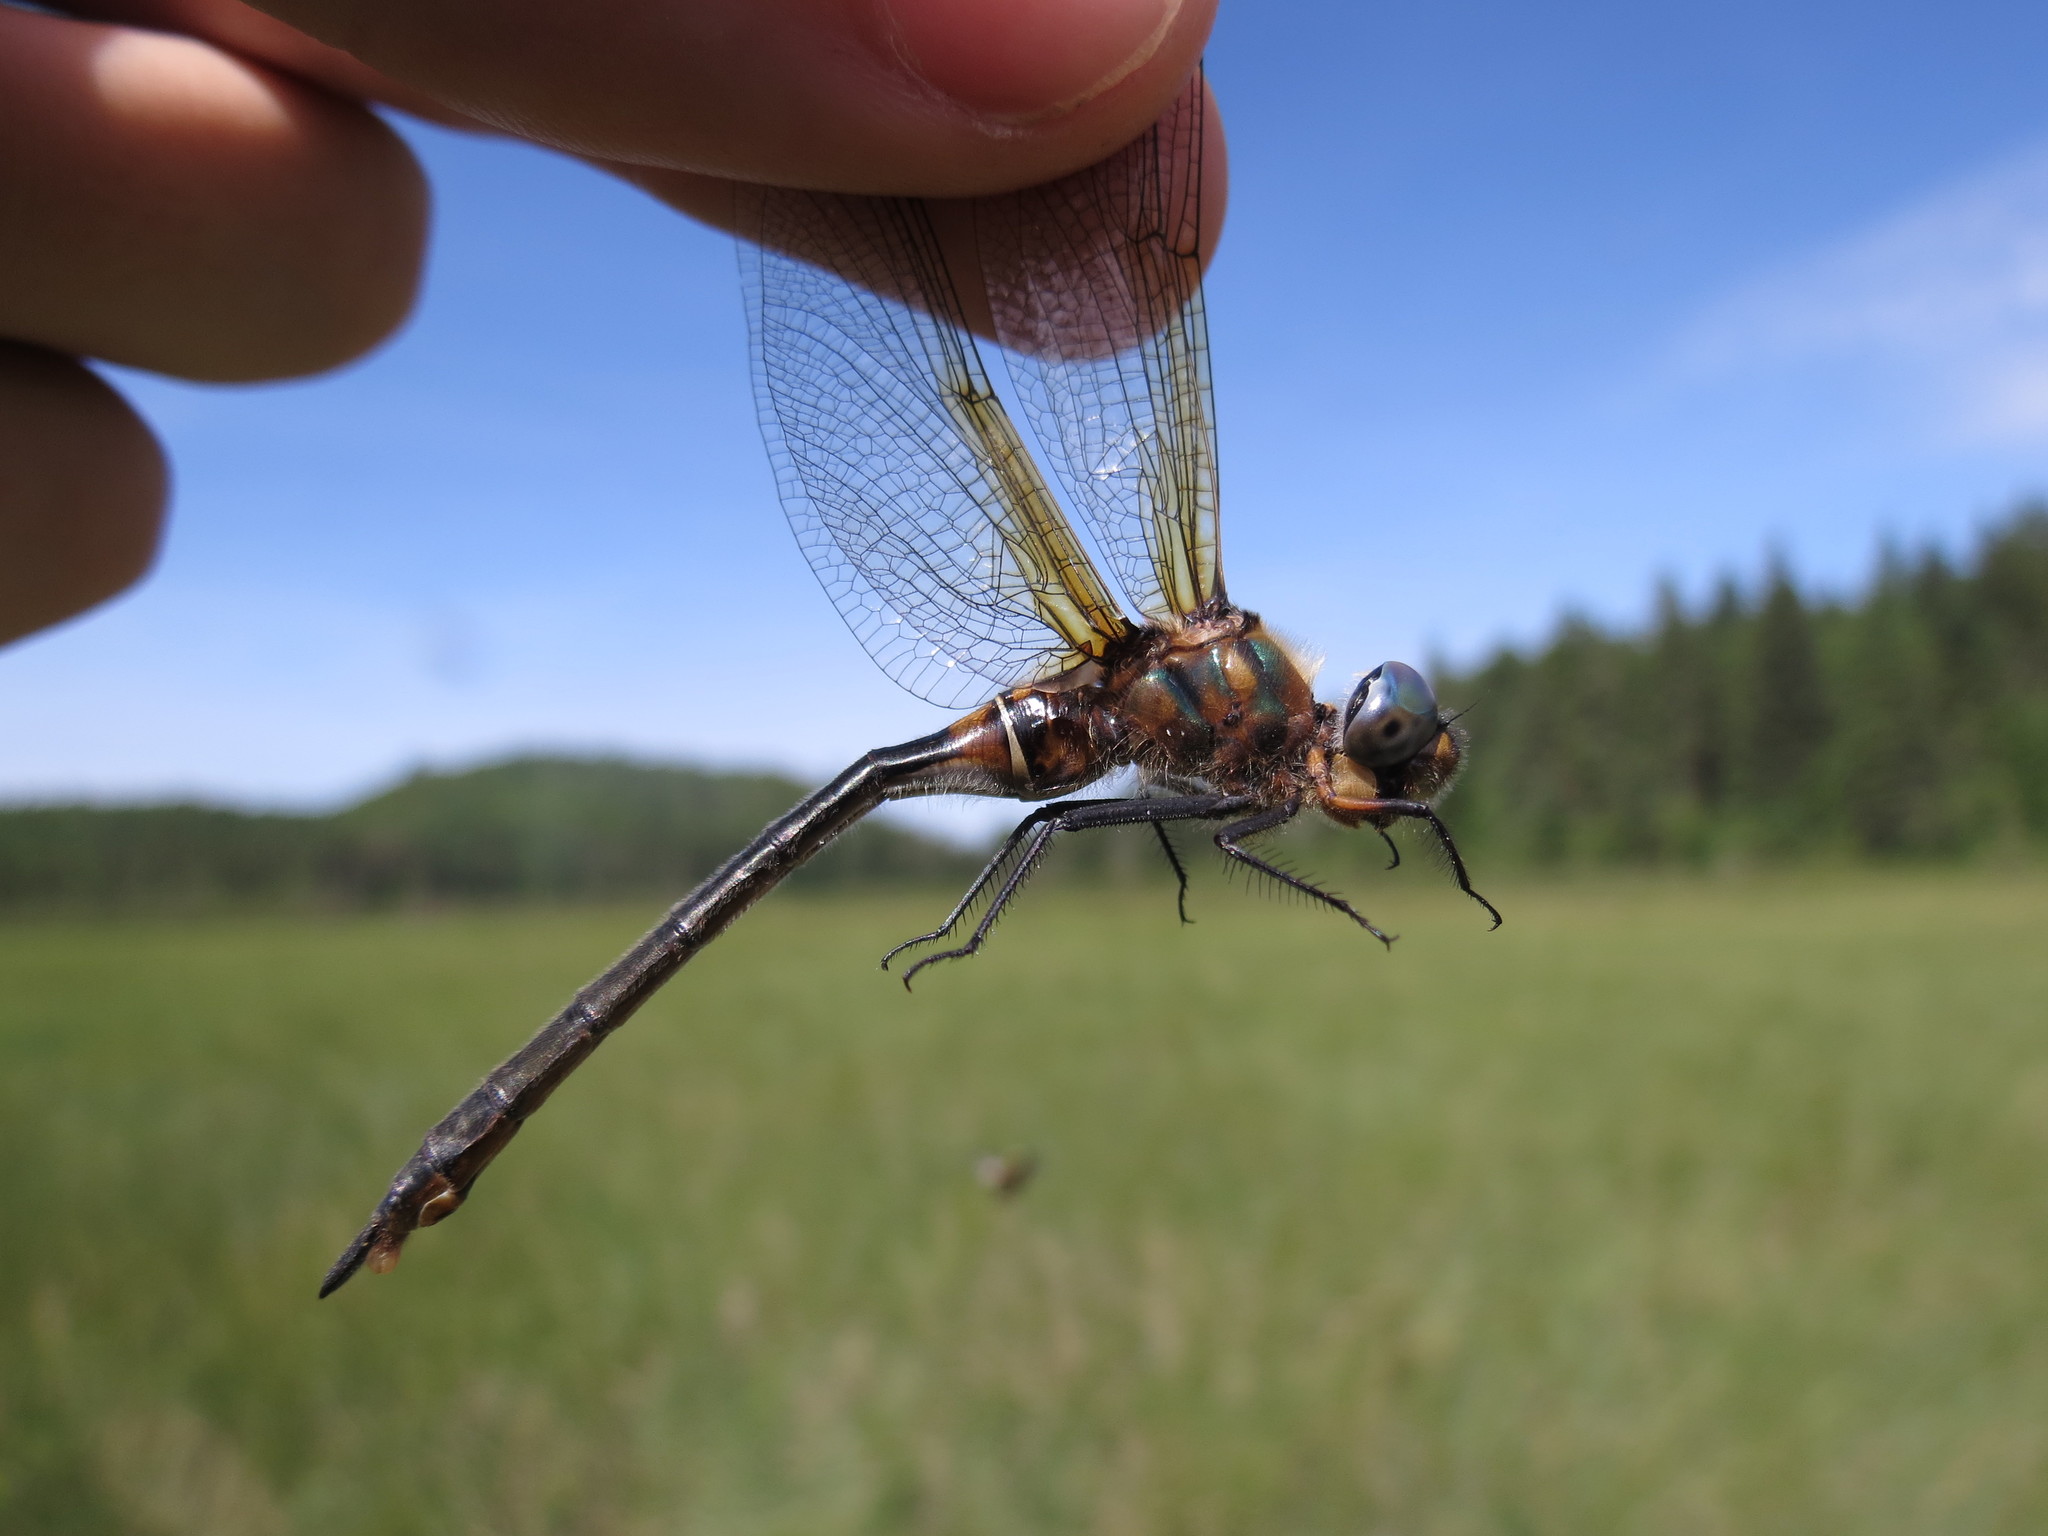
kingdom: Animalia
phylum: Arthropoda
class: Insecta
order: Odonata
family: Corduliidae
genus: Somatochlora
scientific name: Somatochlora kennedyi
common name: Kennedy's emerald
